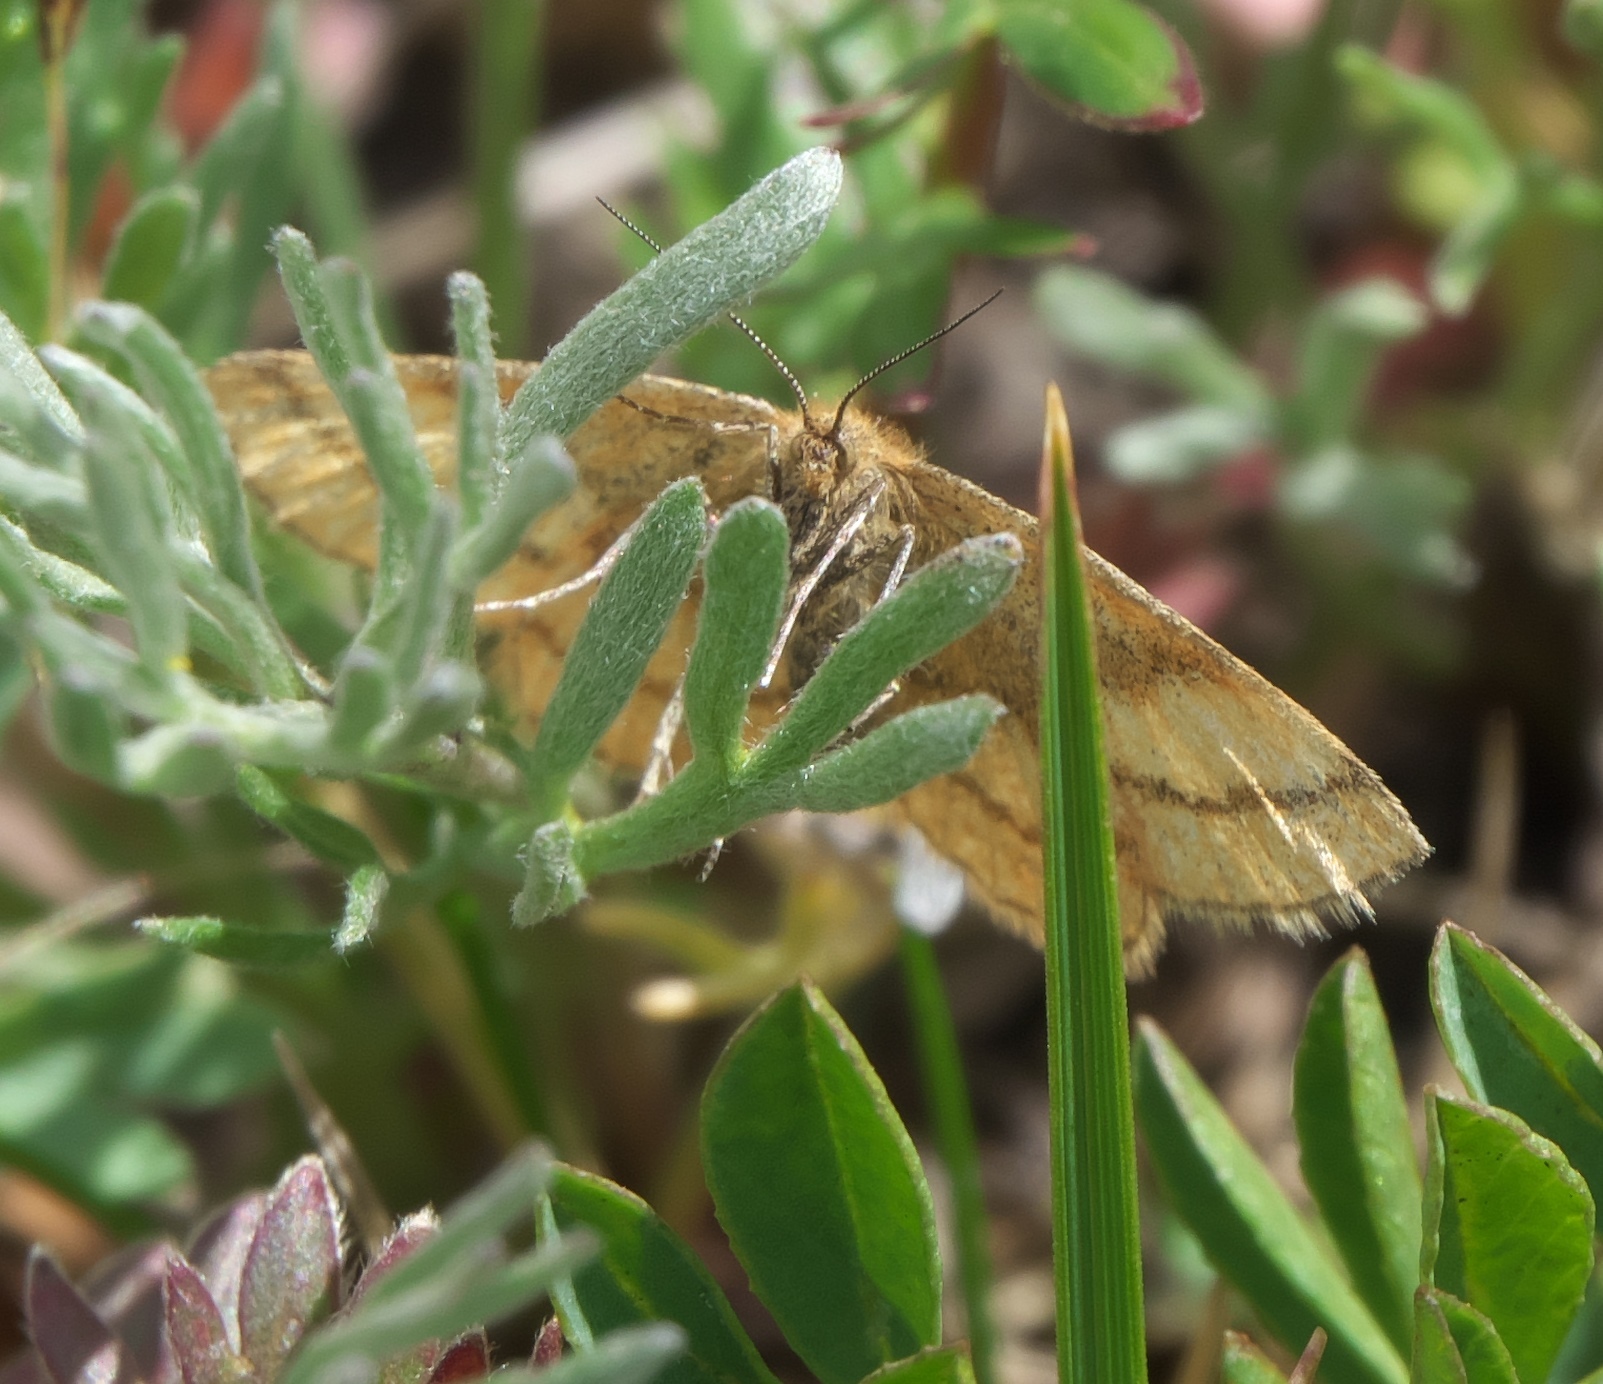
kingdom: Animalia
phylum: Arthropoda
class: Insecta
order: Lepidoptera
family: Geometridae
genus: Scopula
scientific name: Scopula sentinaria
